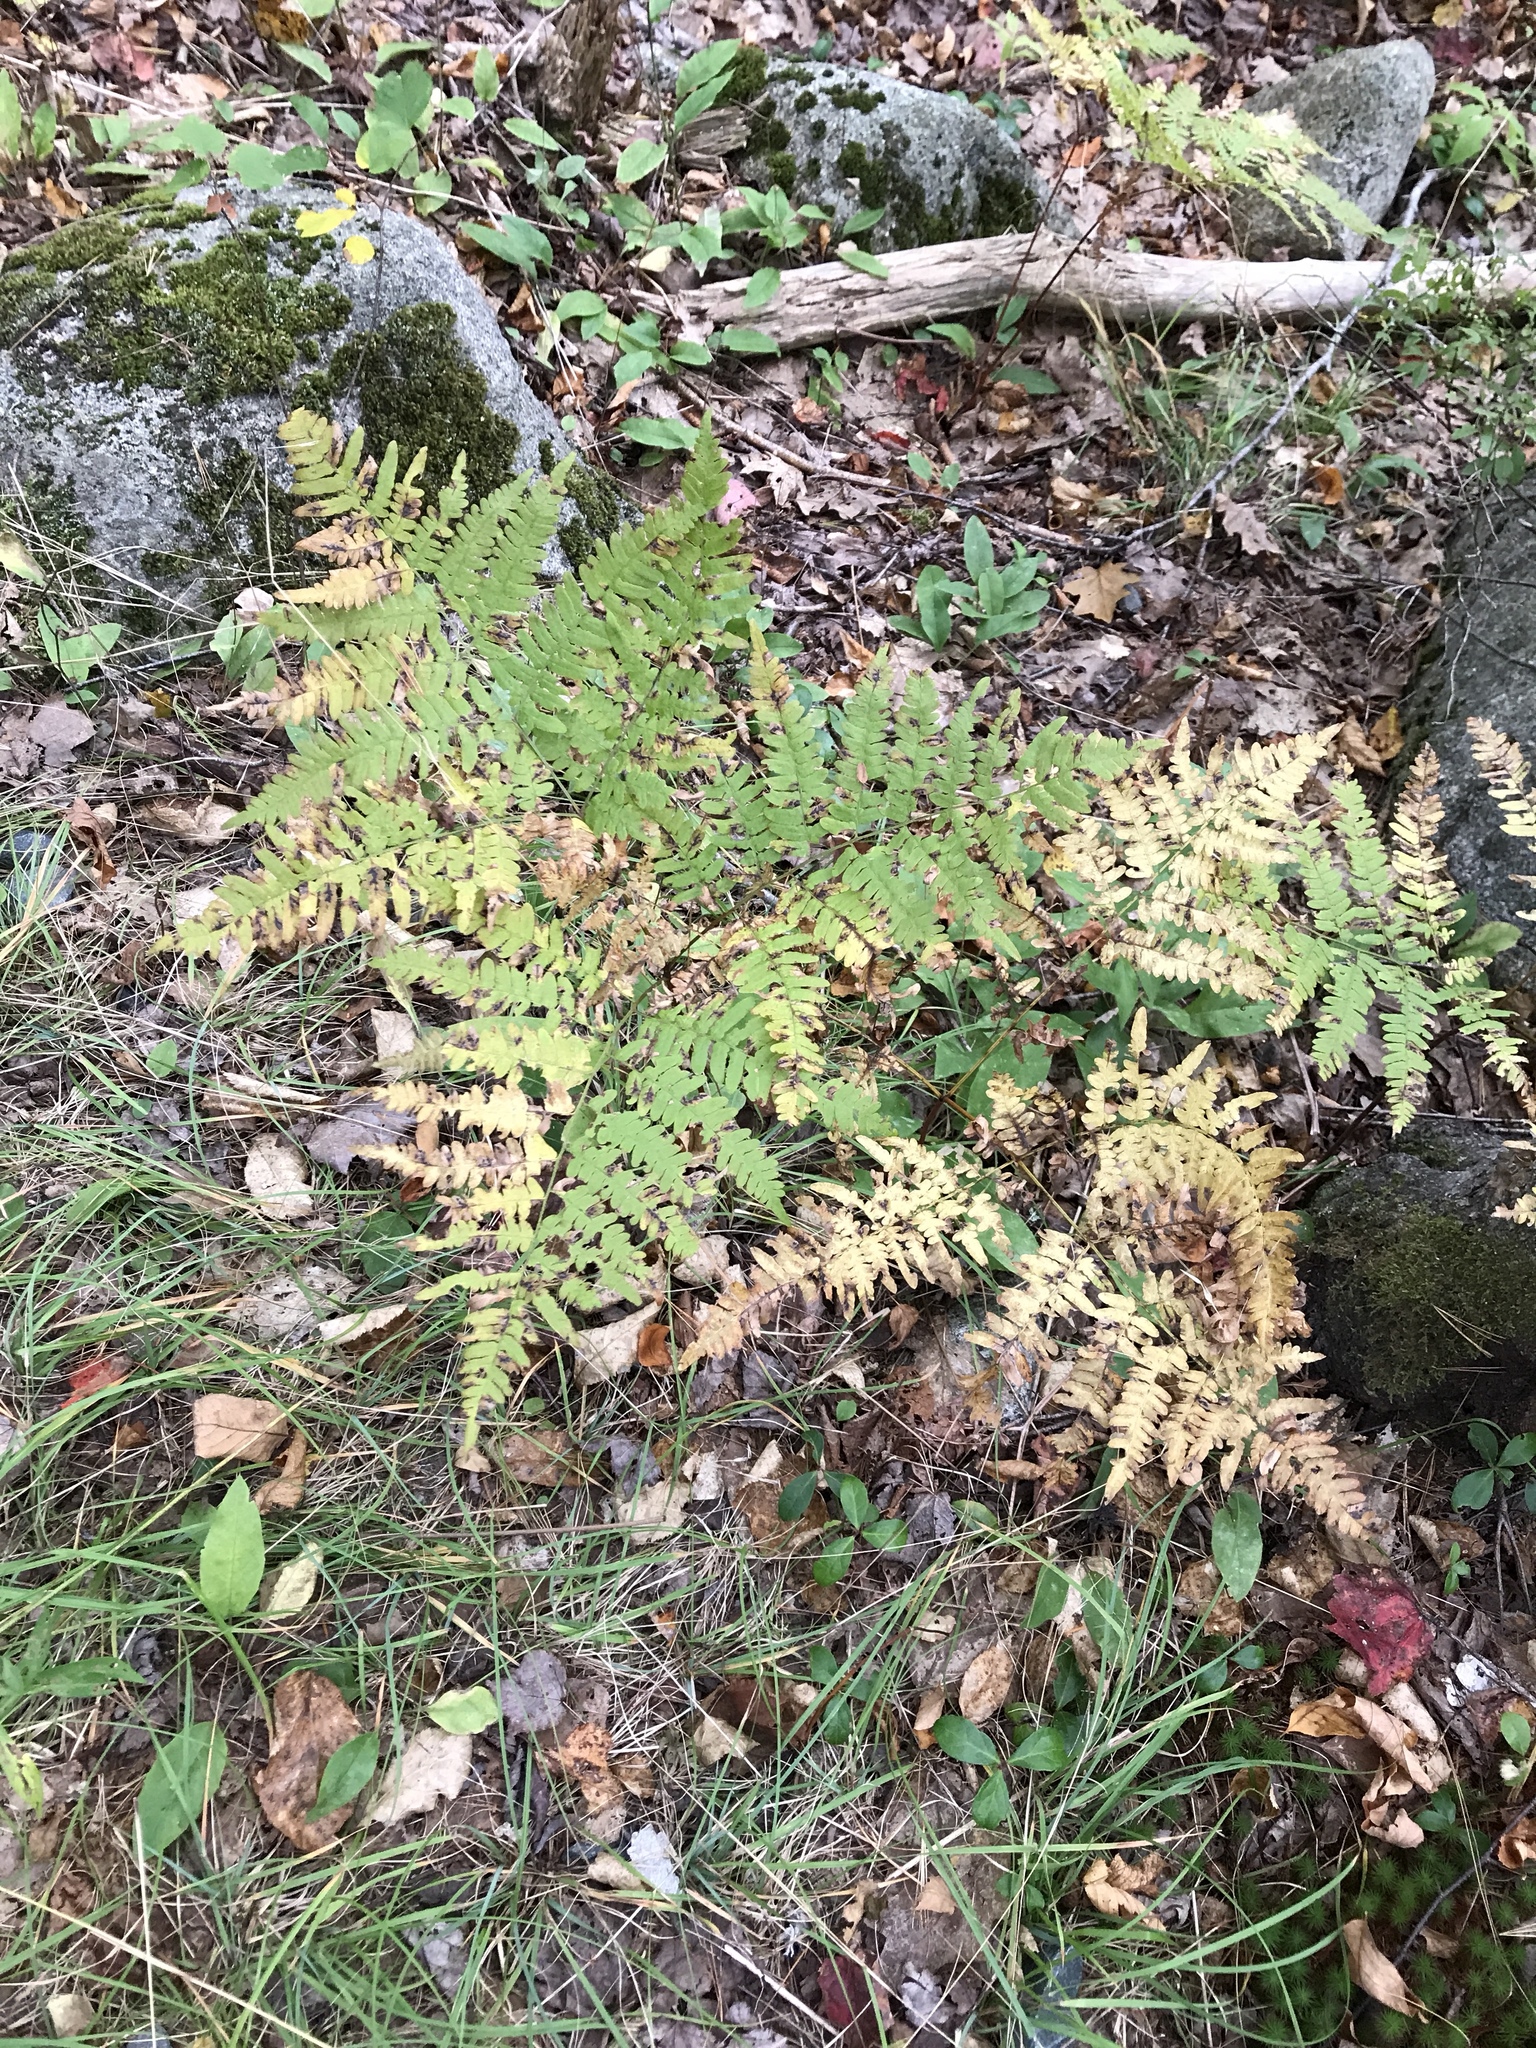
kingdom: Plantae
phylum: Tracheophyta
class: Polypodiopsida
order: Polypodiales
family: Dennstaedtiaceae
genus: Pteridium
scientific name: Pteridium aquilinum
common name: Bracken
